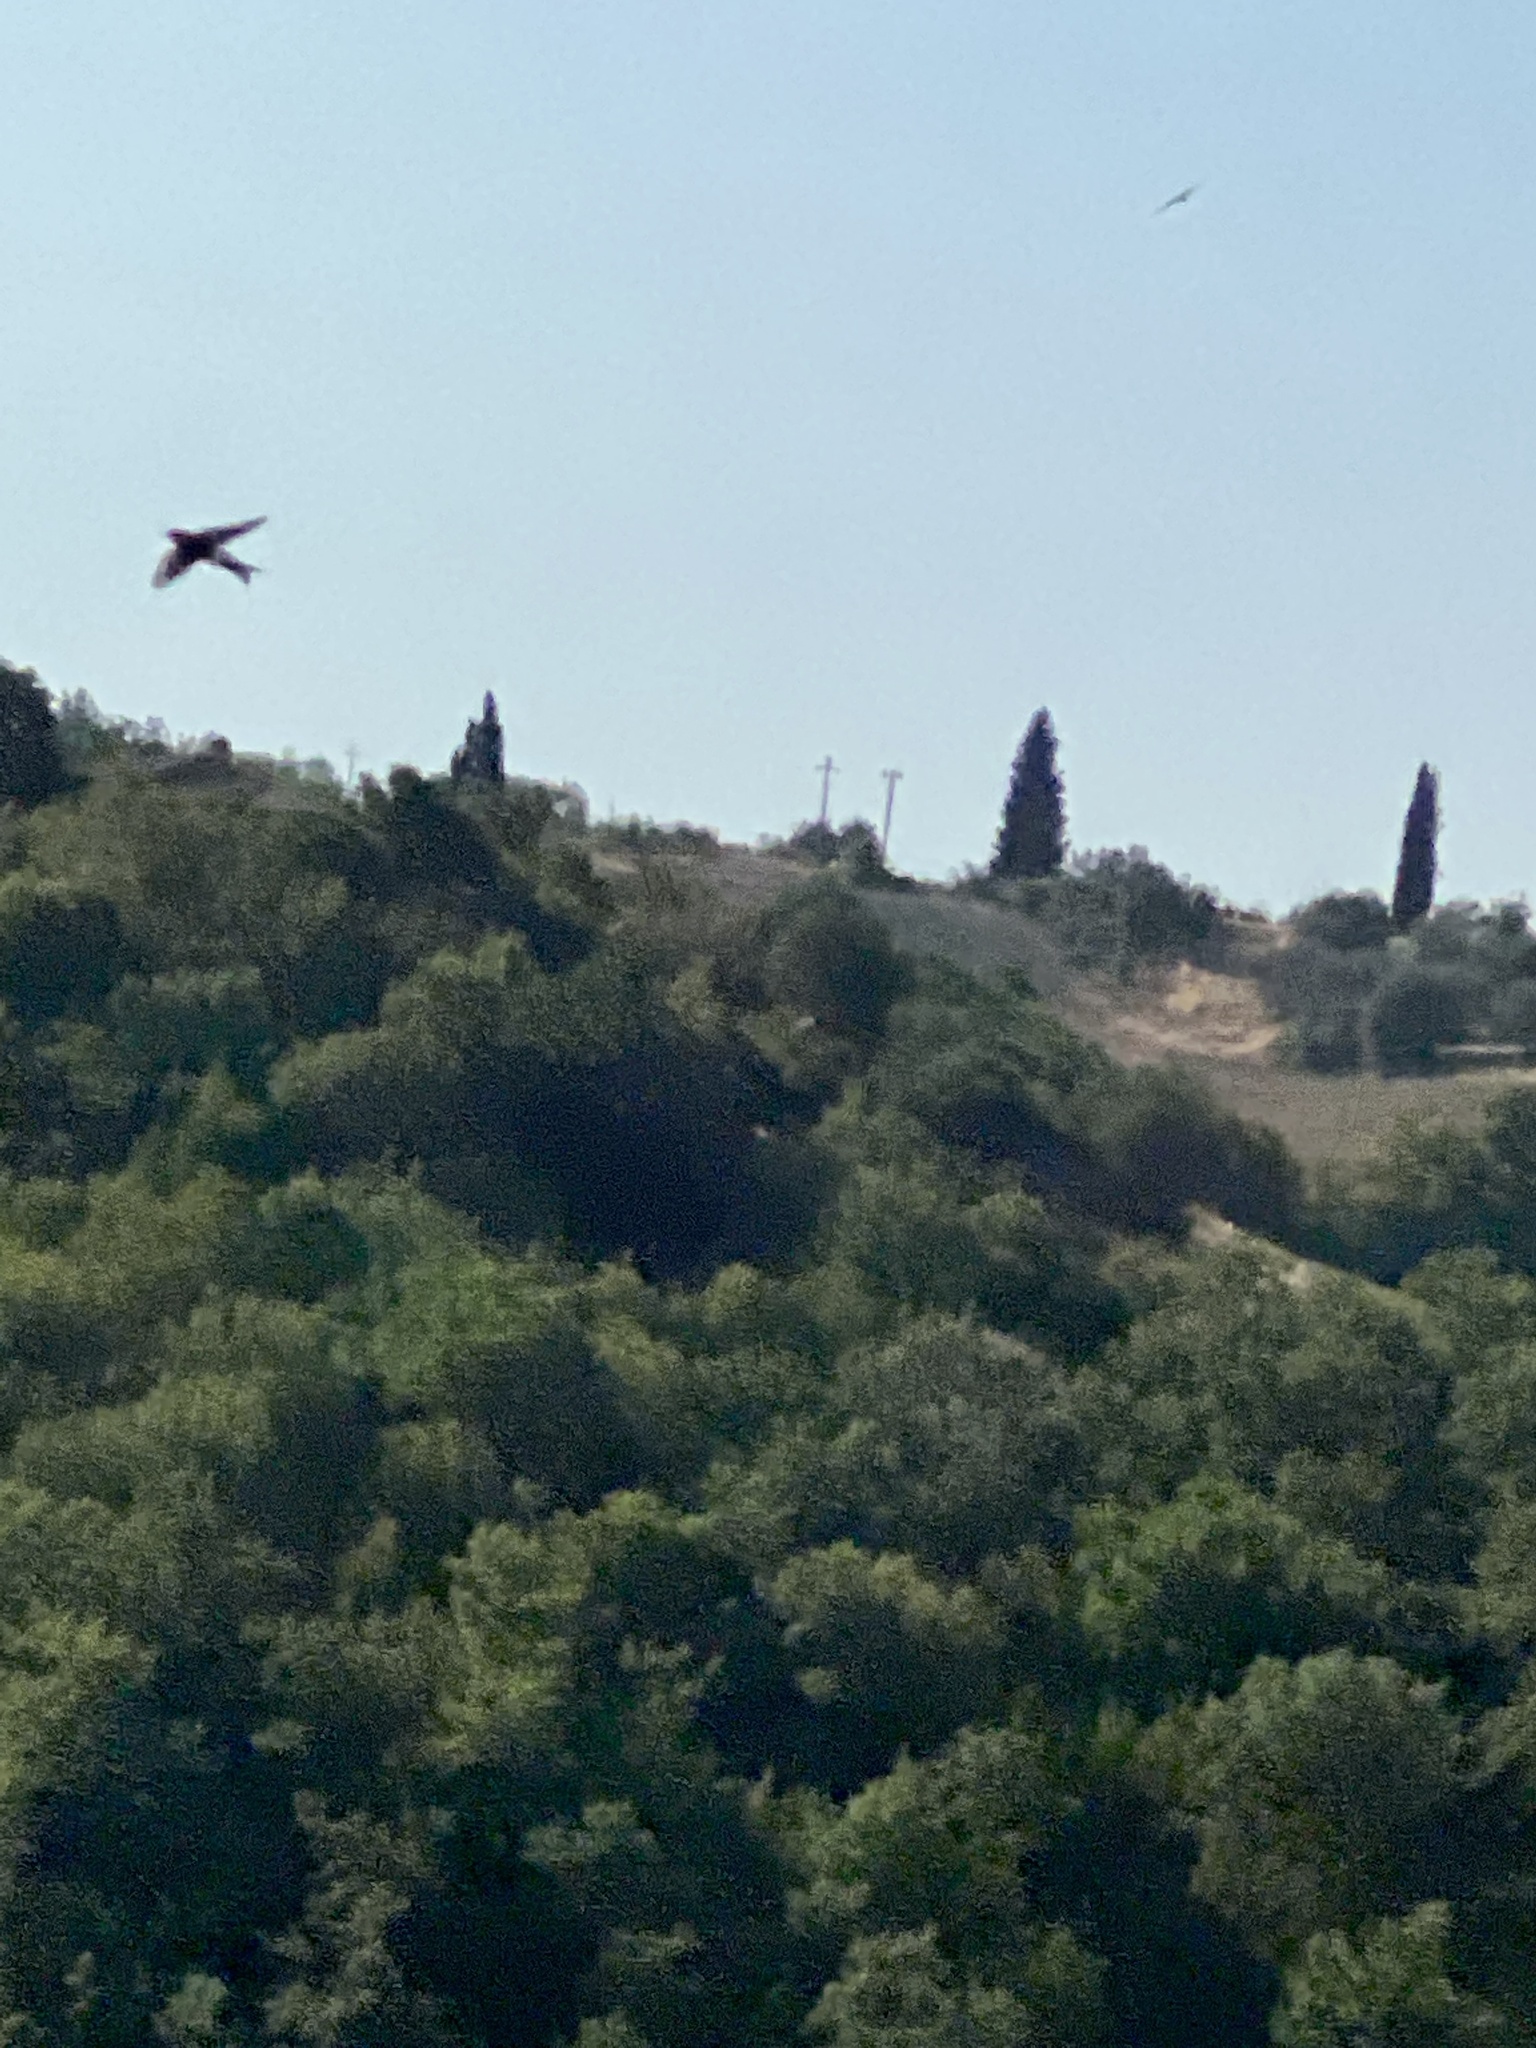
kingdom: Animalia
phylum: Chordata
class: Aves
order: Passeriformes
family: Hirundinidae
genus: Delichon
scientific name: Delichon urbicum
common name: Common house martin
